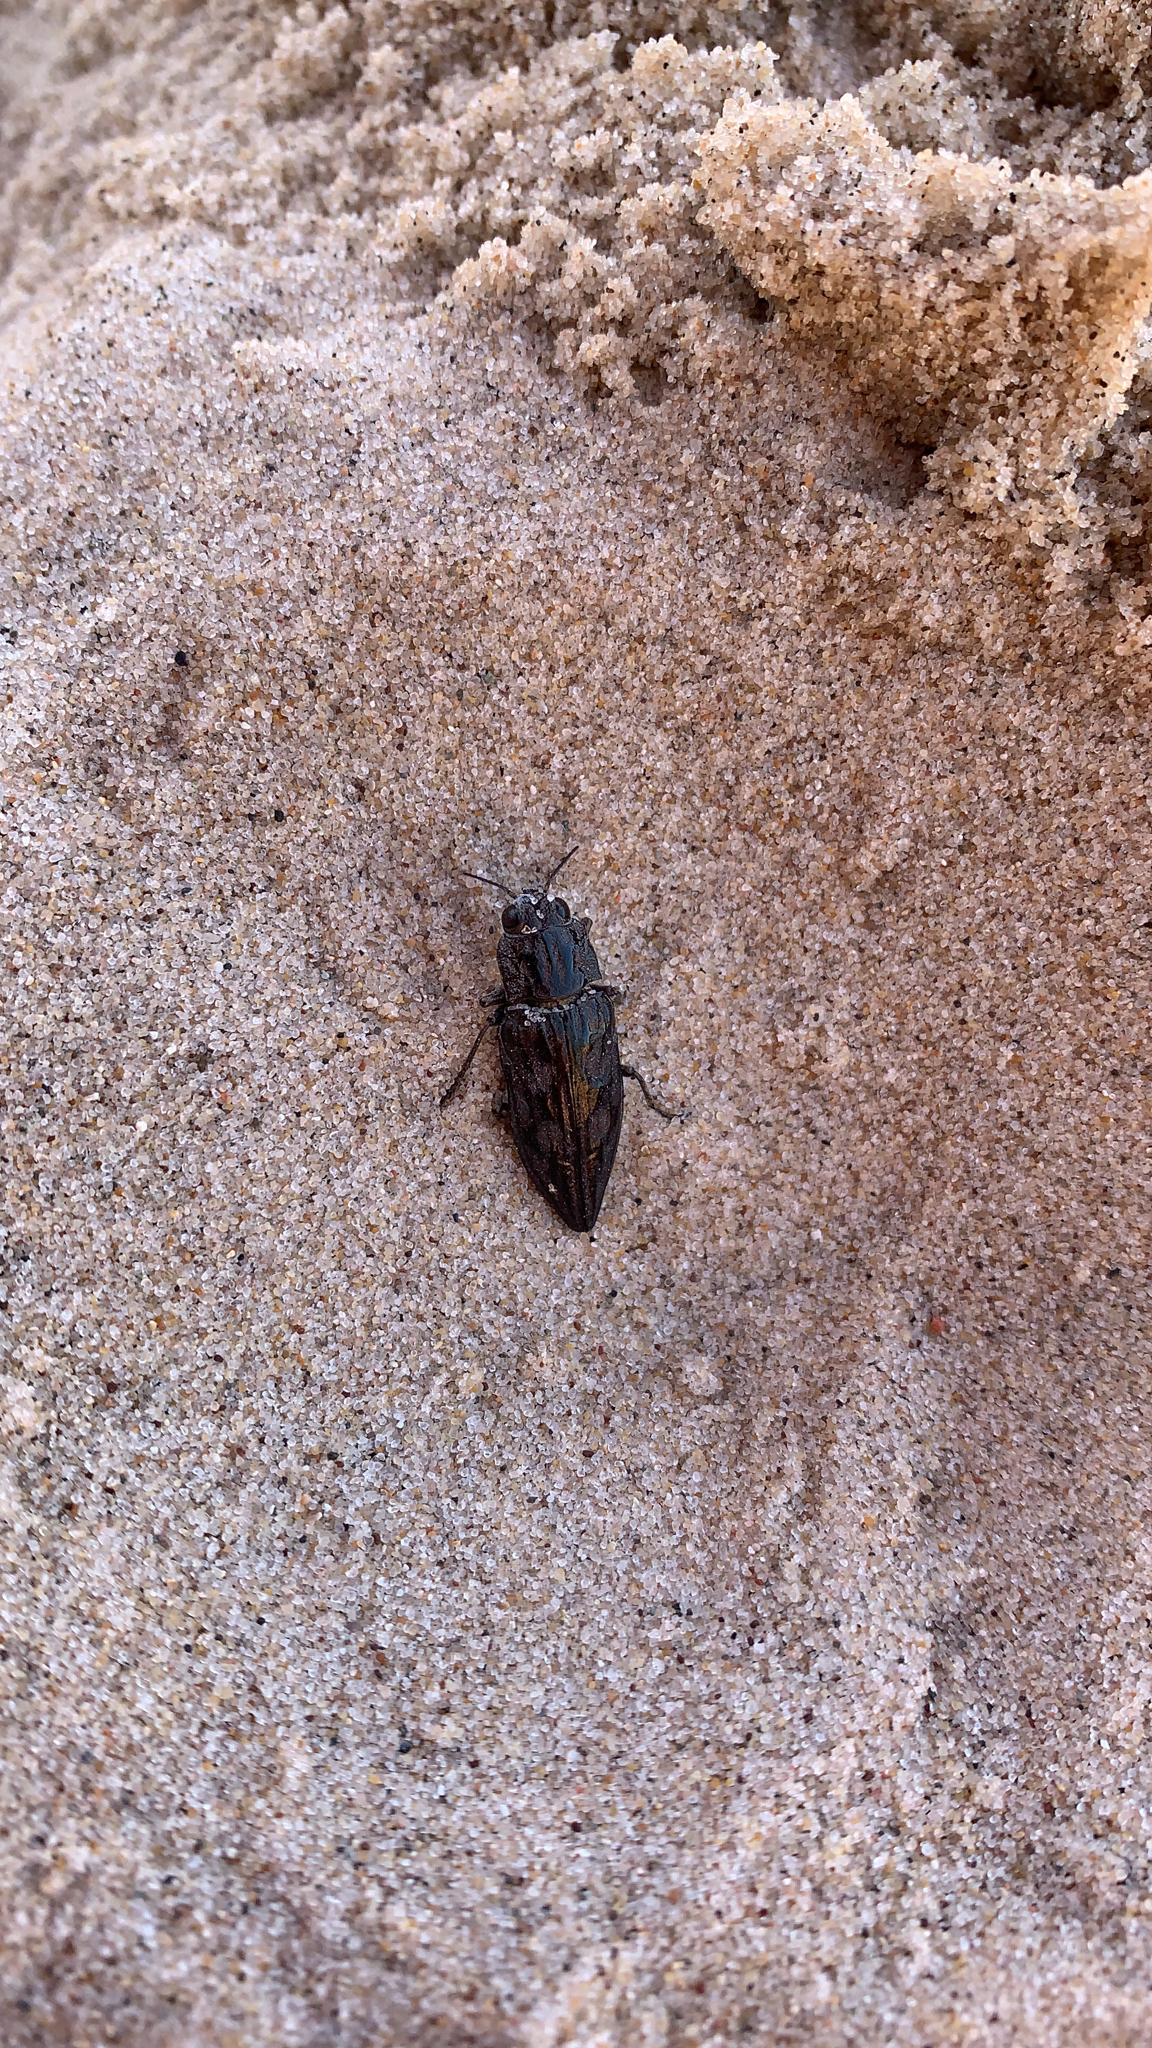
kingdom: Animalia
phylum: Arthropoda
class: Insecta
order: Coleoptera
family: Buprestidae
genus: Chalcophora
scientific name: Chalcophora virginiensis
